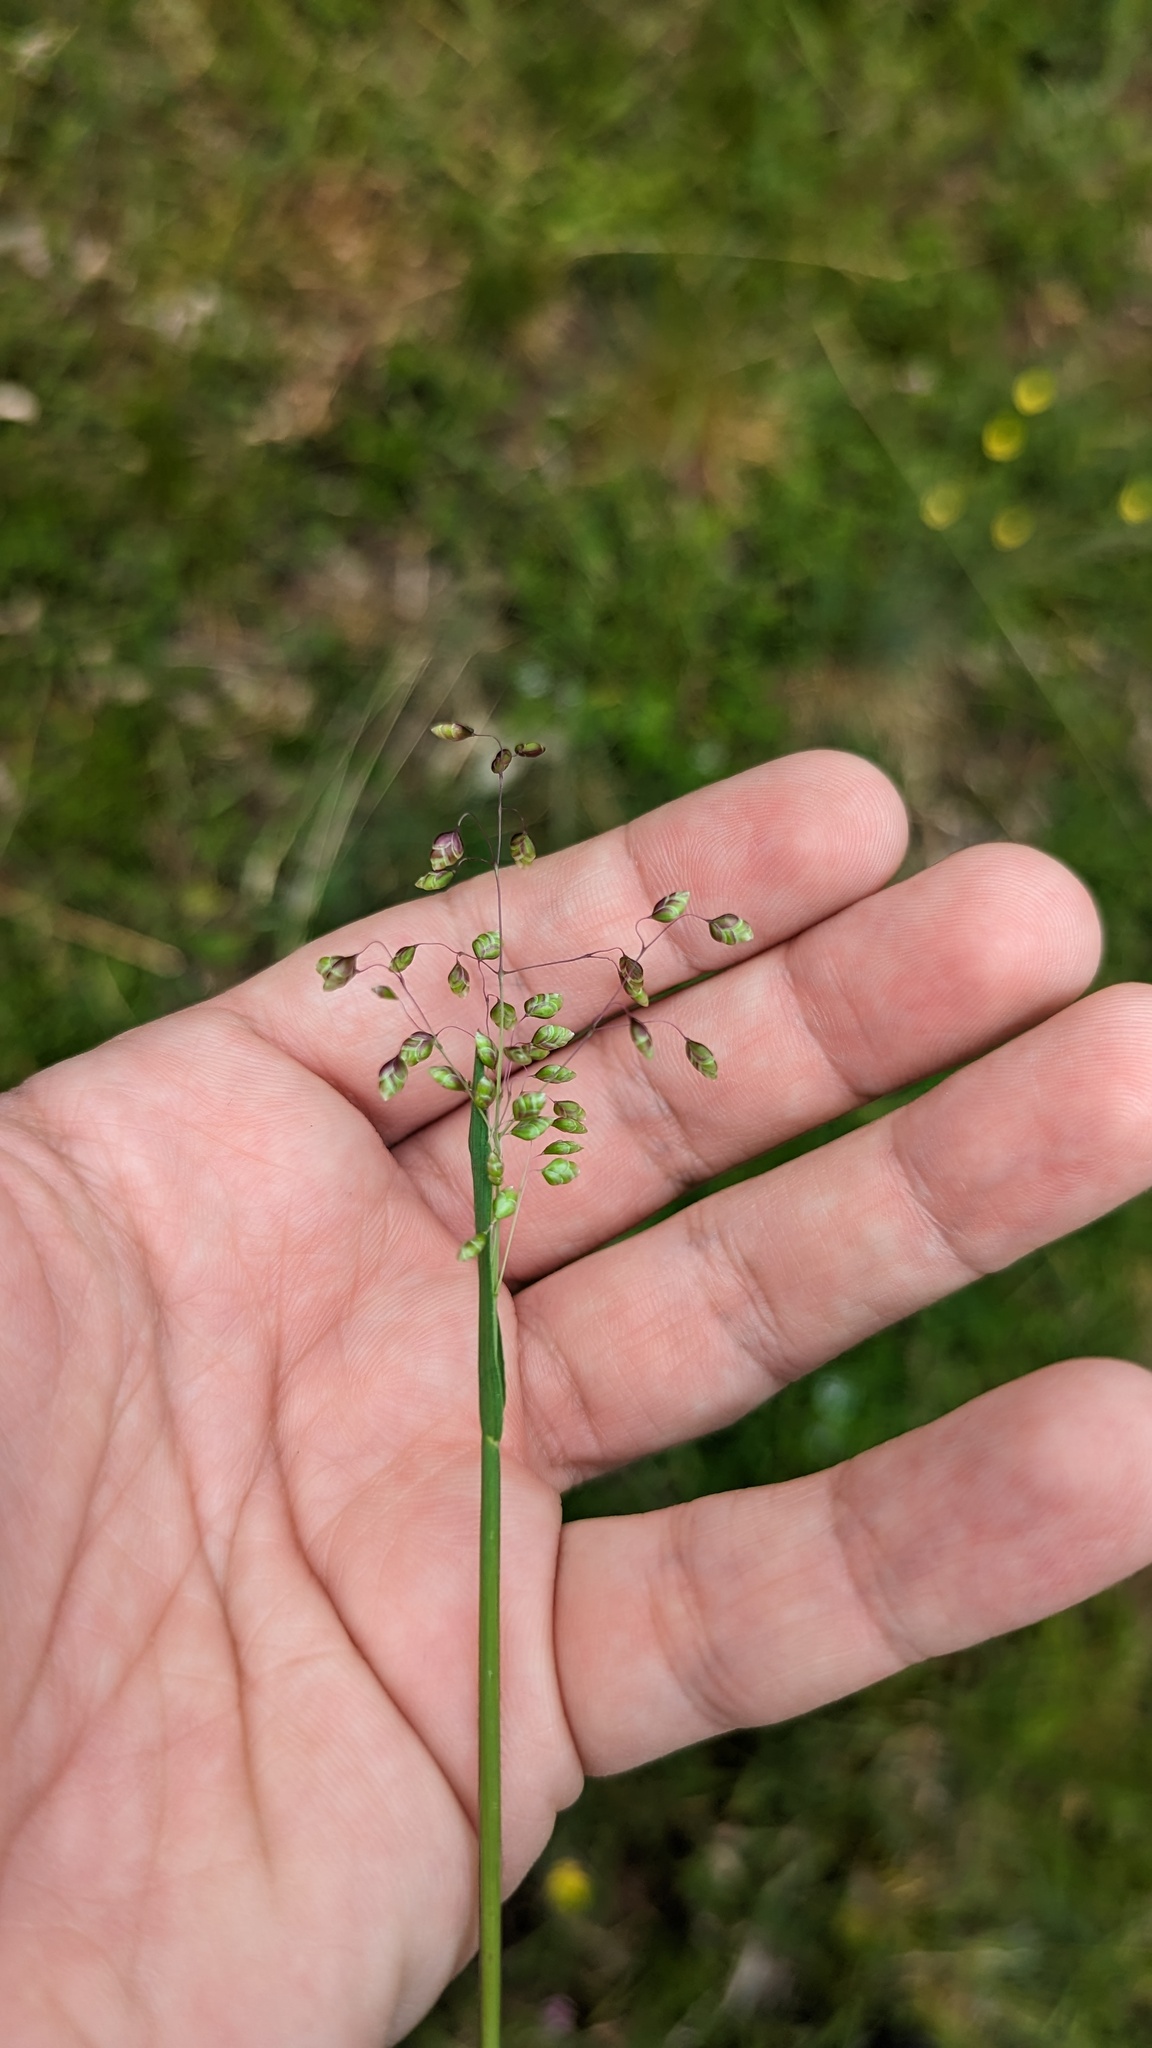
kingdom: Plantae
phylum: Tracheophyta
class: Liliopsida
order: Poales
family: Poaceae
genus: Briza
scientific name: Briza media
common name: Quaking grass
